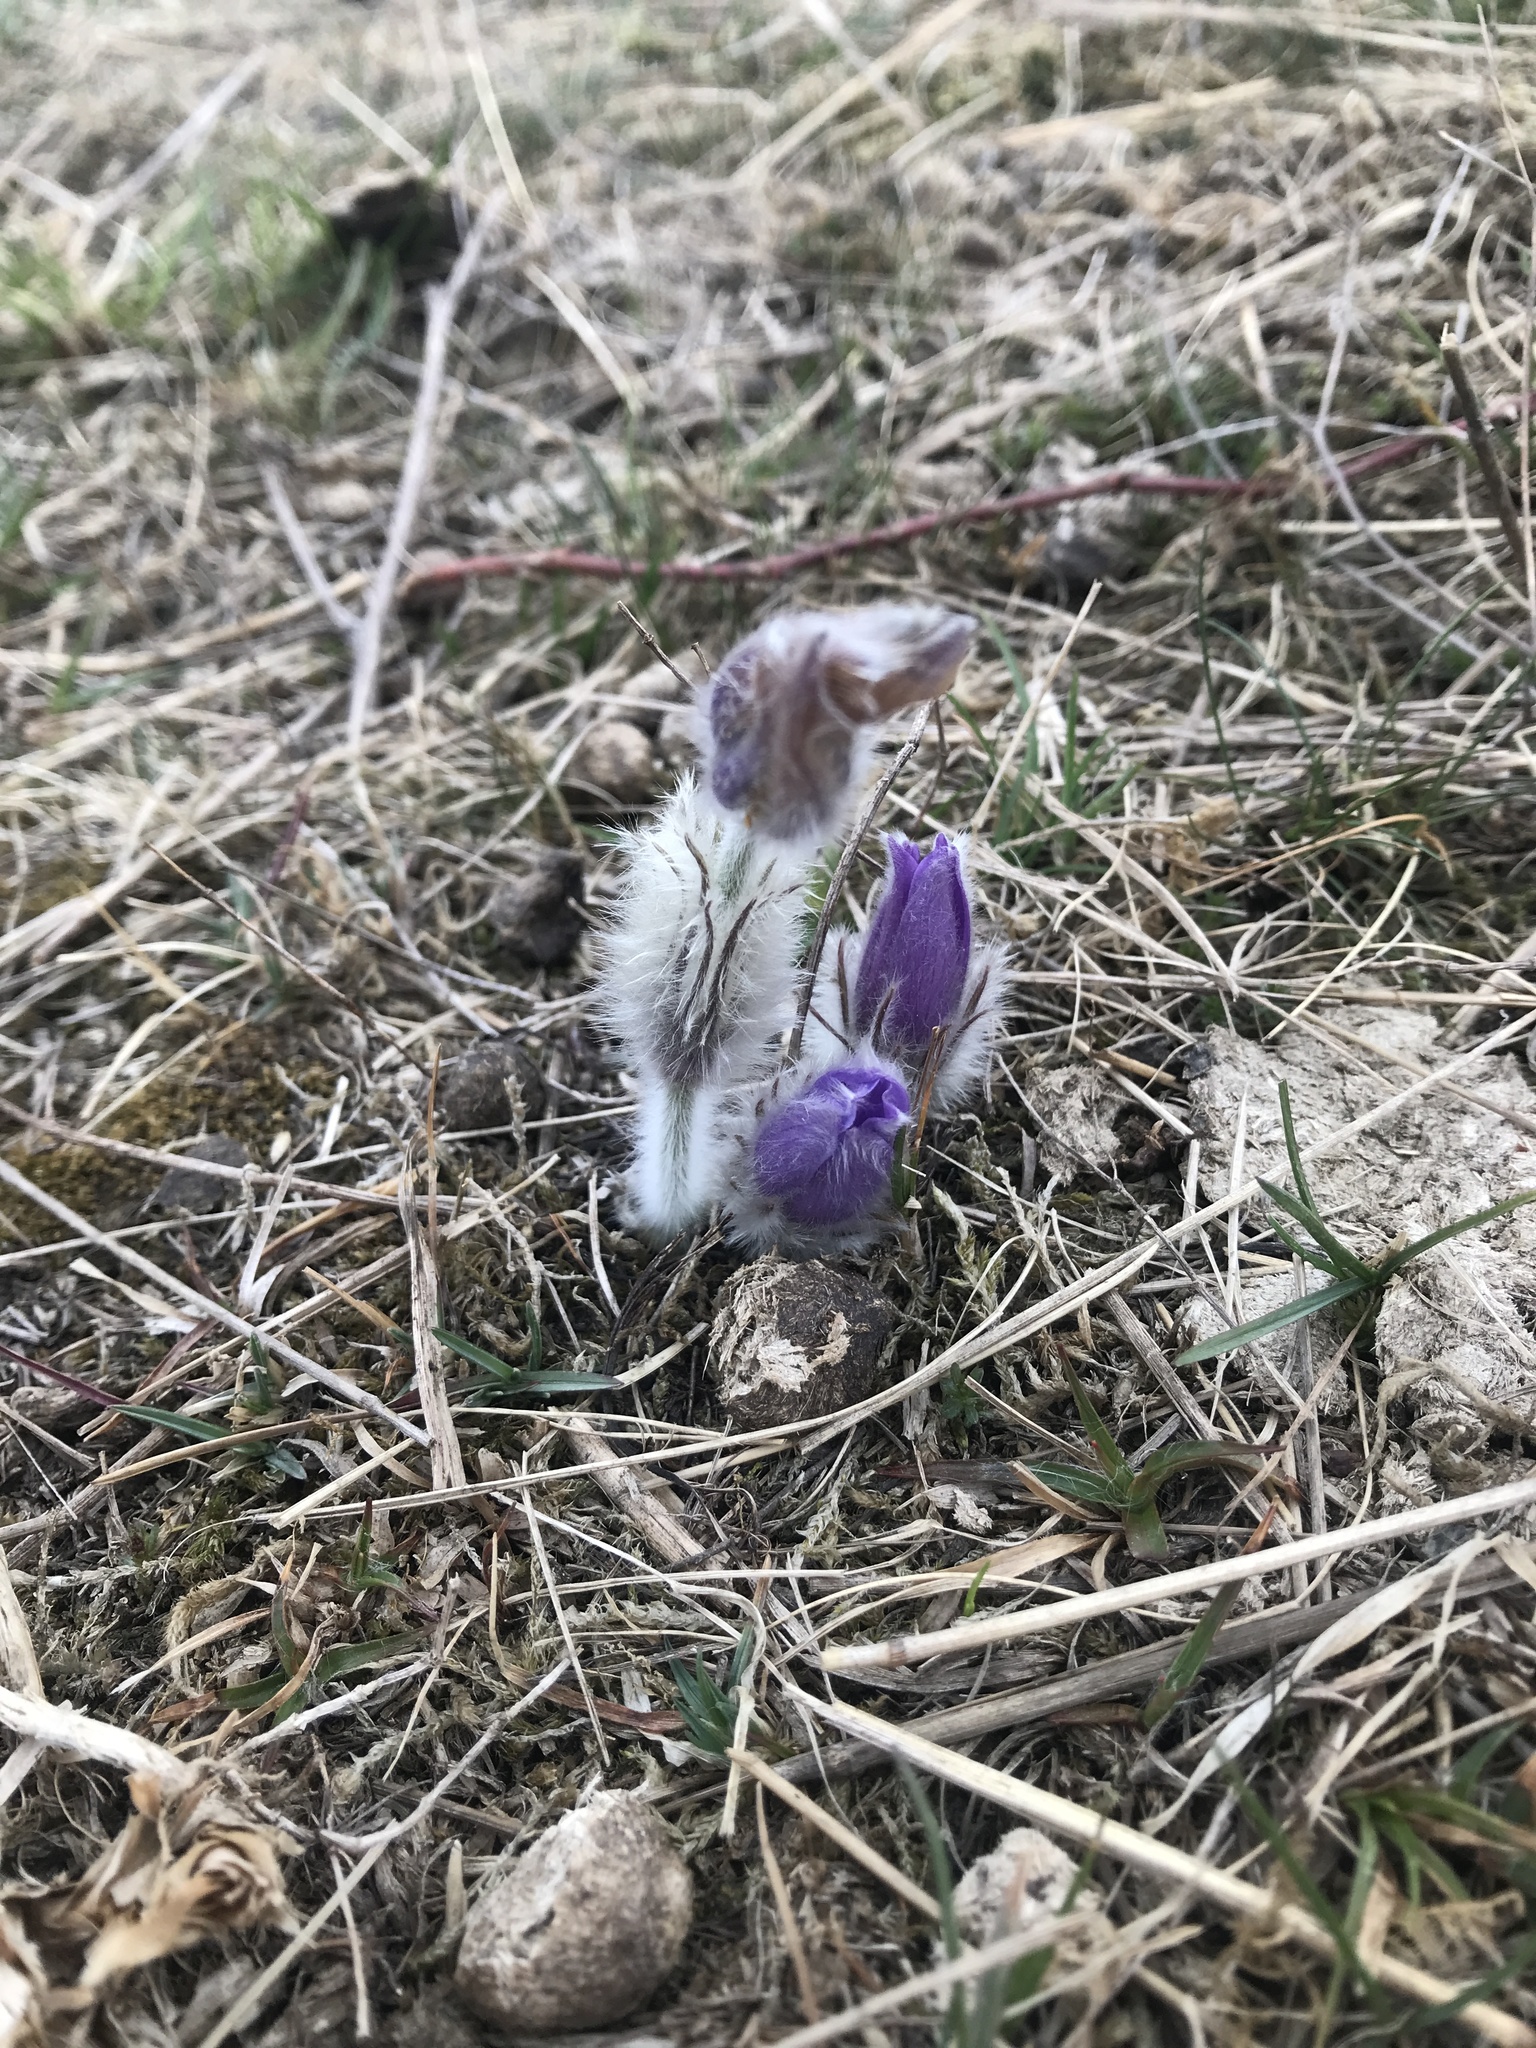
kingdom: Plantae
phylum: Tracheophyta
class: Magnoliopsida
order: Ranunculales
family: Ranunculaceae
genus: Pulsatilla
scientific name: Pulsatilla grandis
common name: Greater pasque flower
